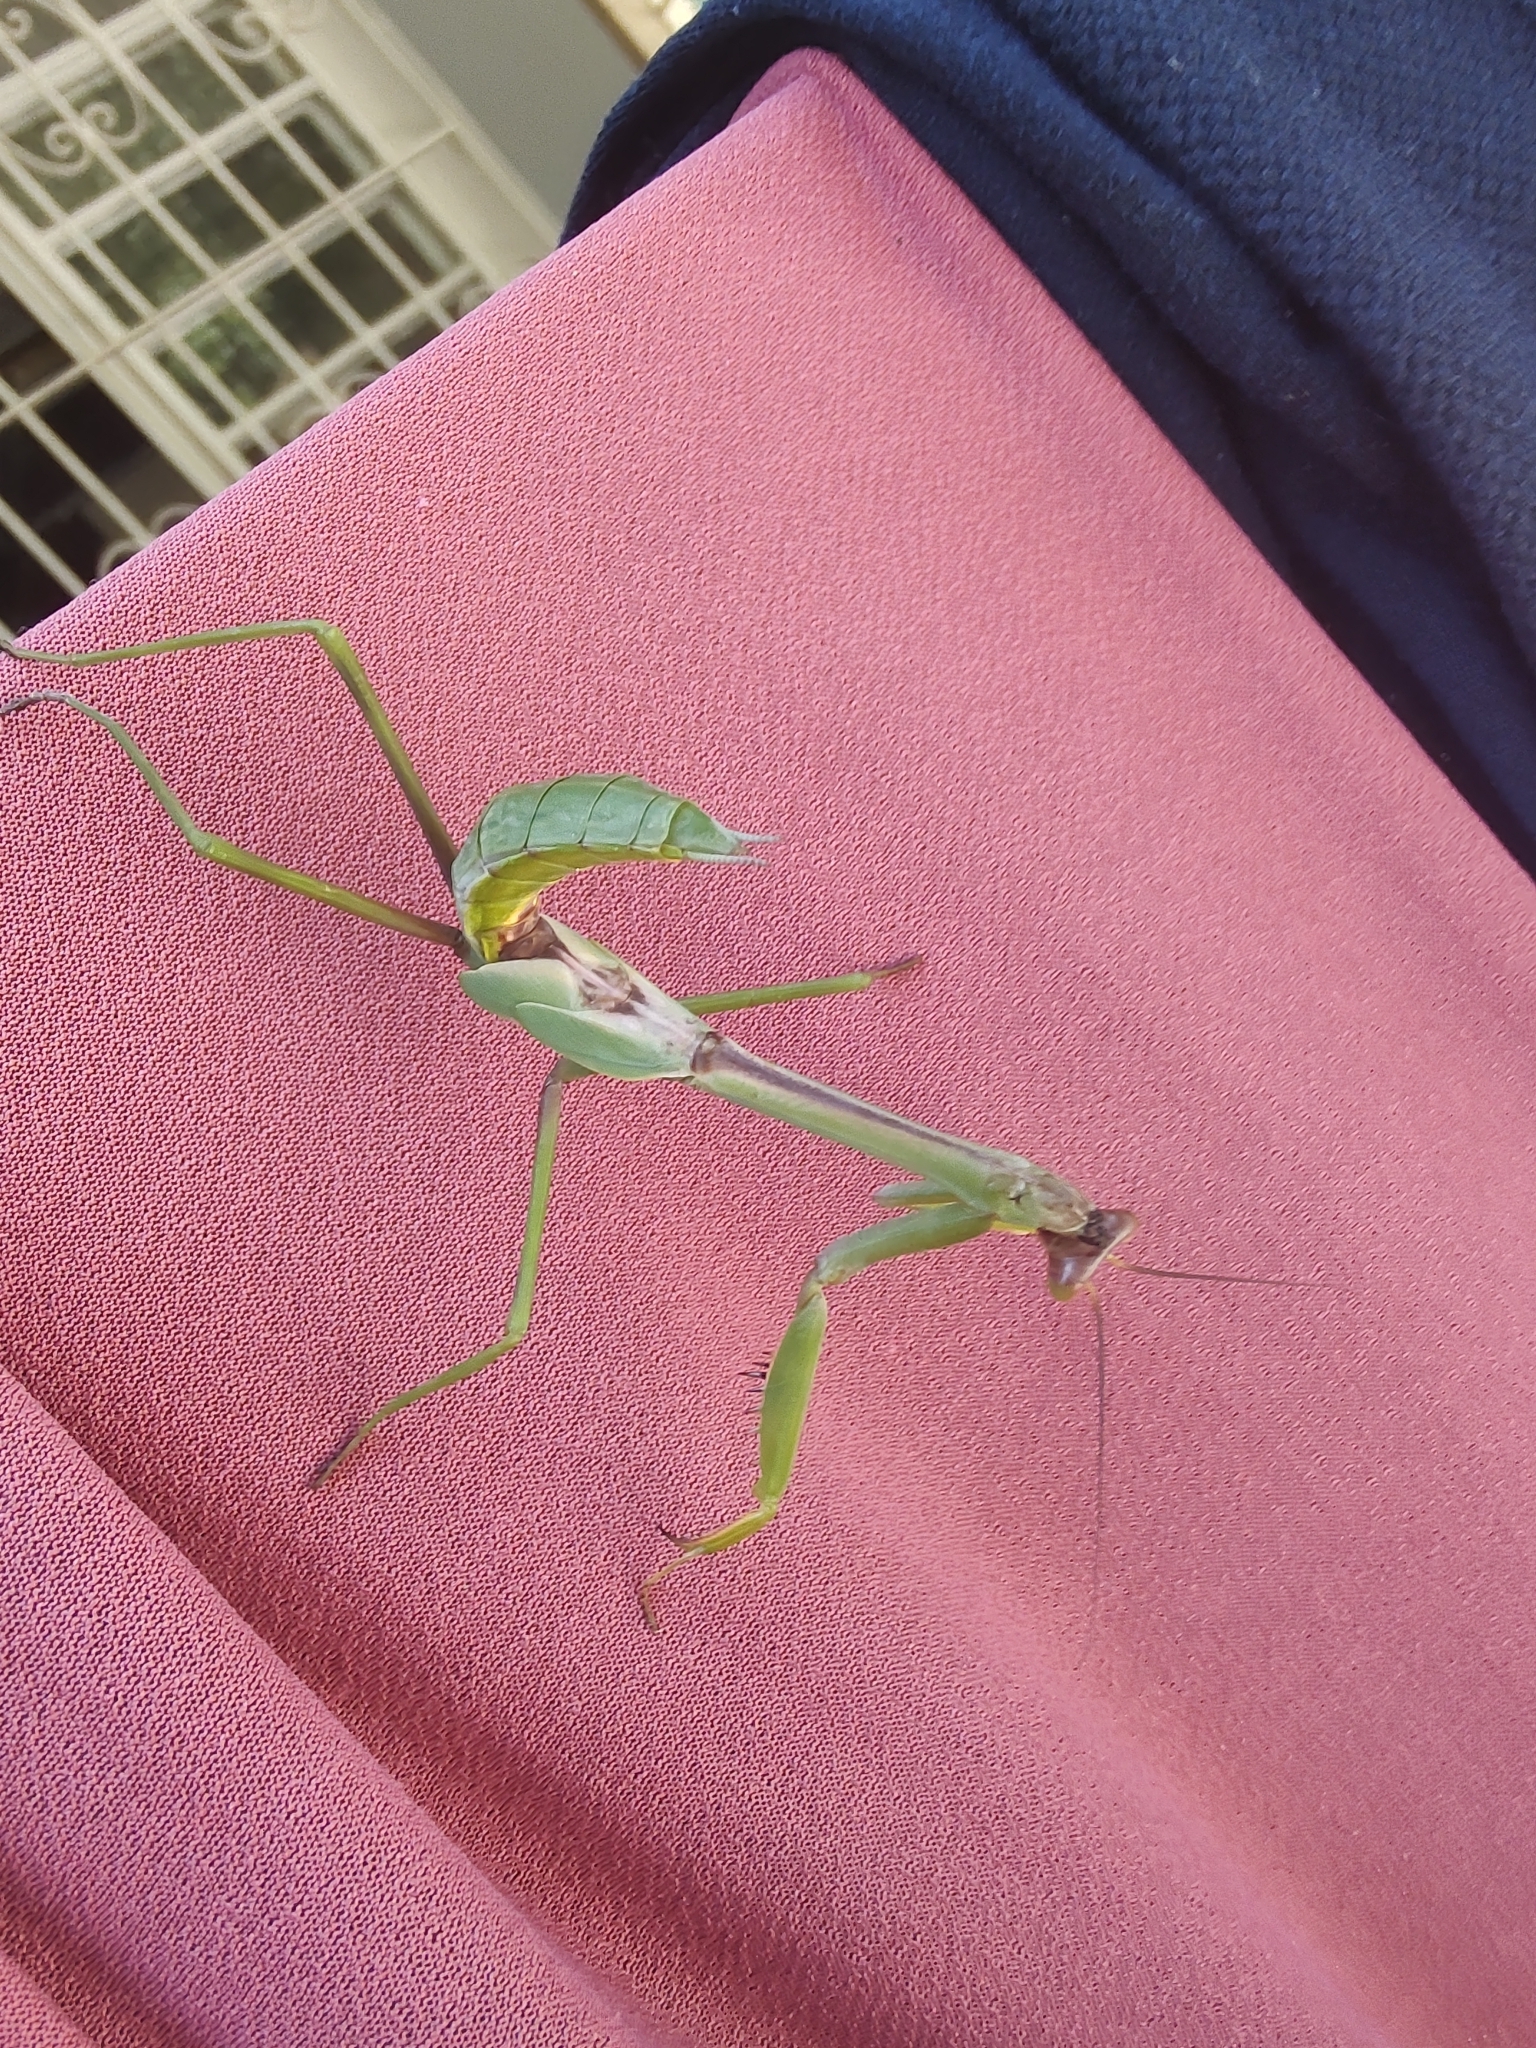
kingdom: Animalia
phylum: Arthropoda
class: Insecta
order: Mantodea
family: Mantidae
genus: Stagmatoptera
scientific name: Stagmatoptera praecaria
